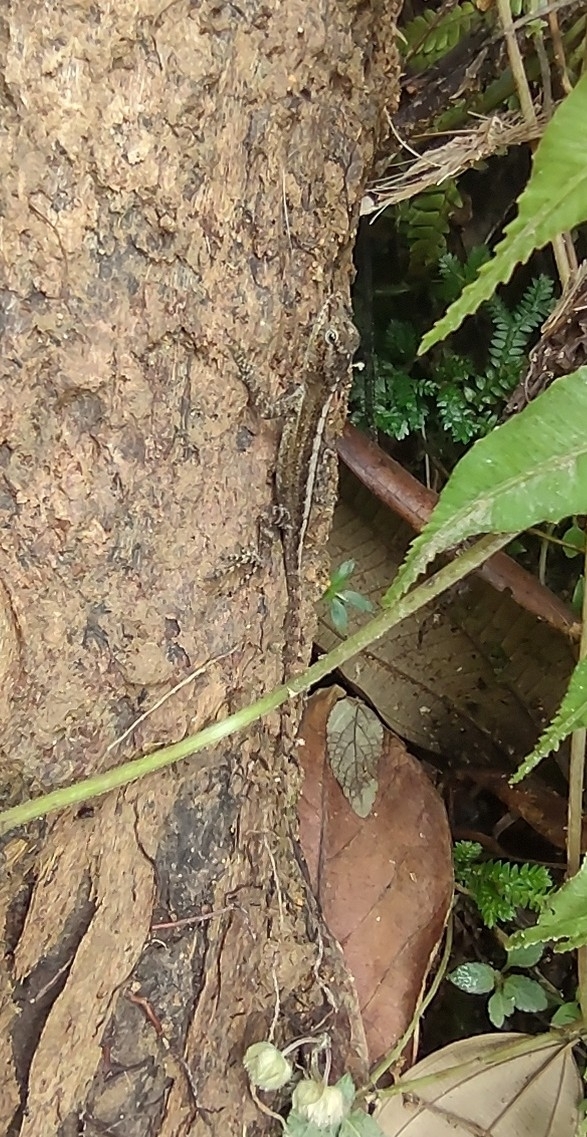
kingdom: Animalia
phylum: Chordata
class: Squamata
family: Dactyloidae
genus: Anolis
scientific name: Anolis oculatus
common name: Dominica anole
